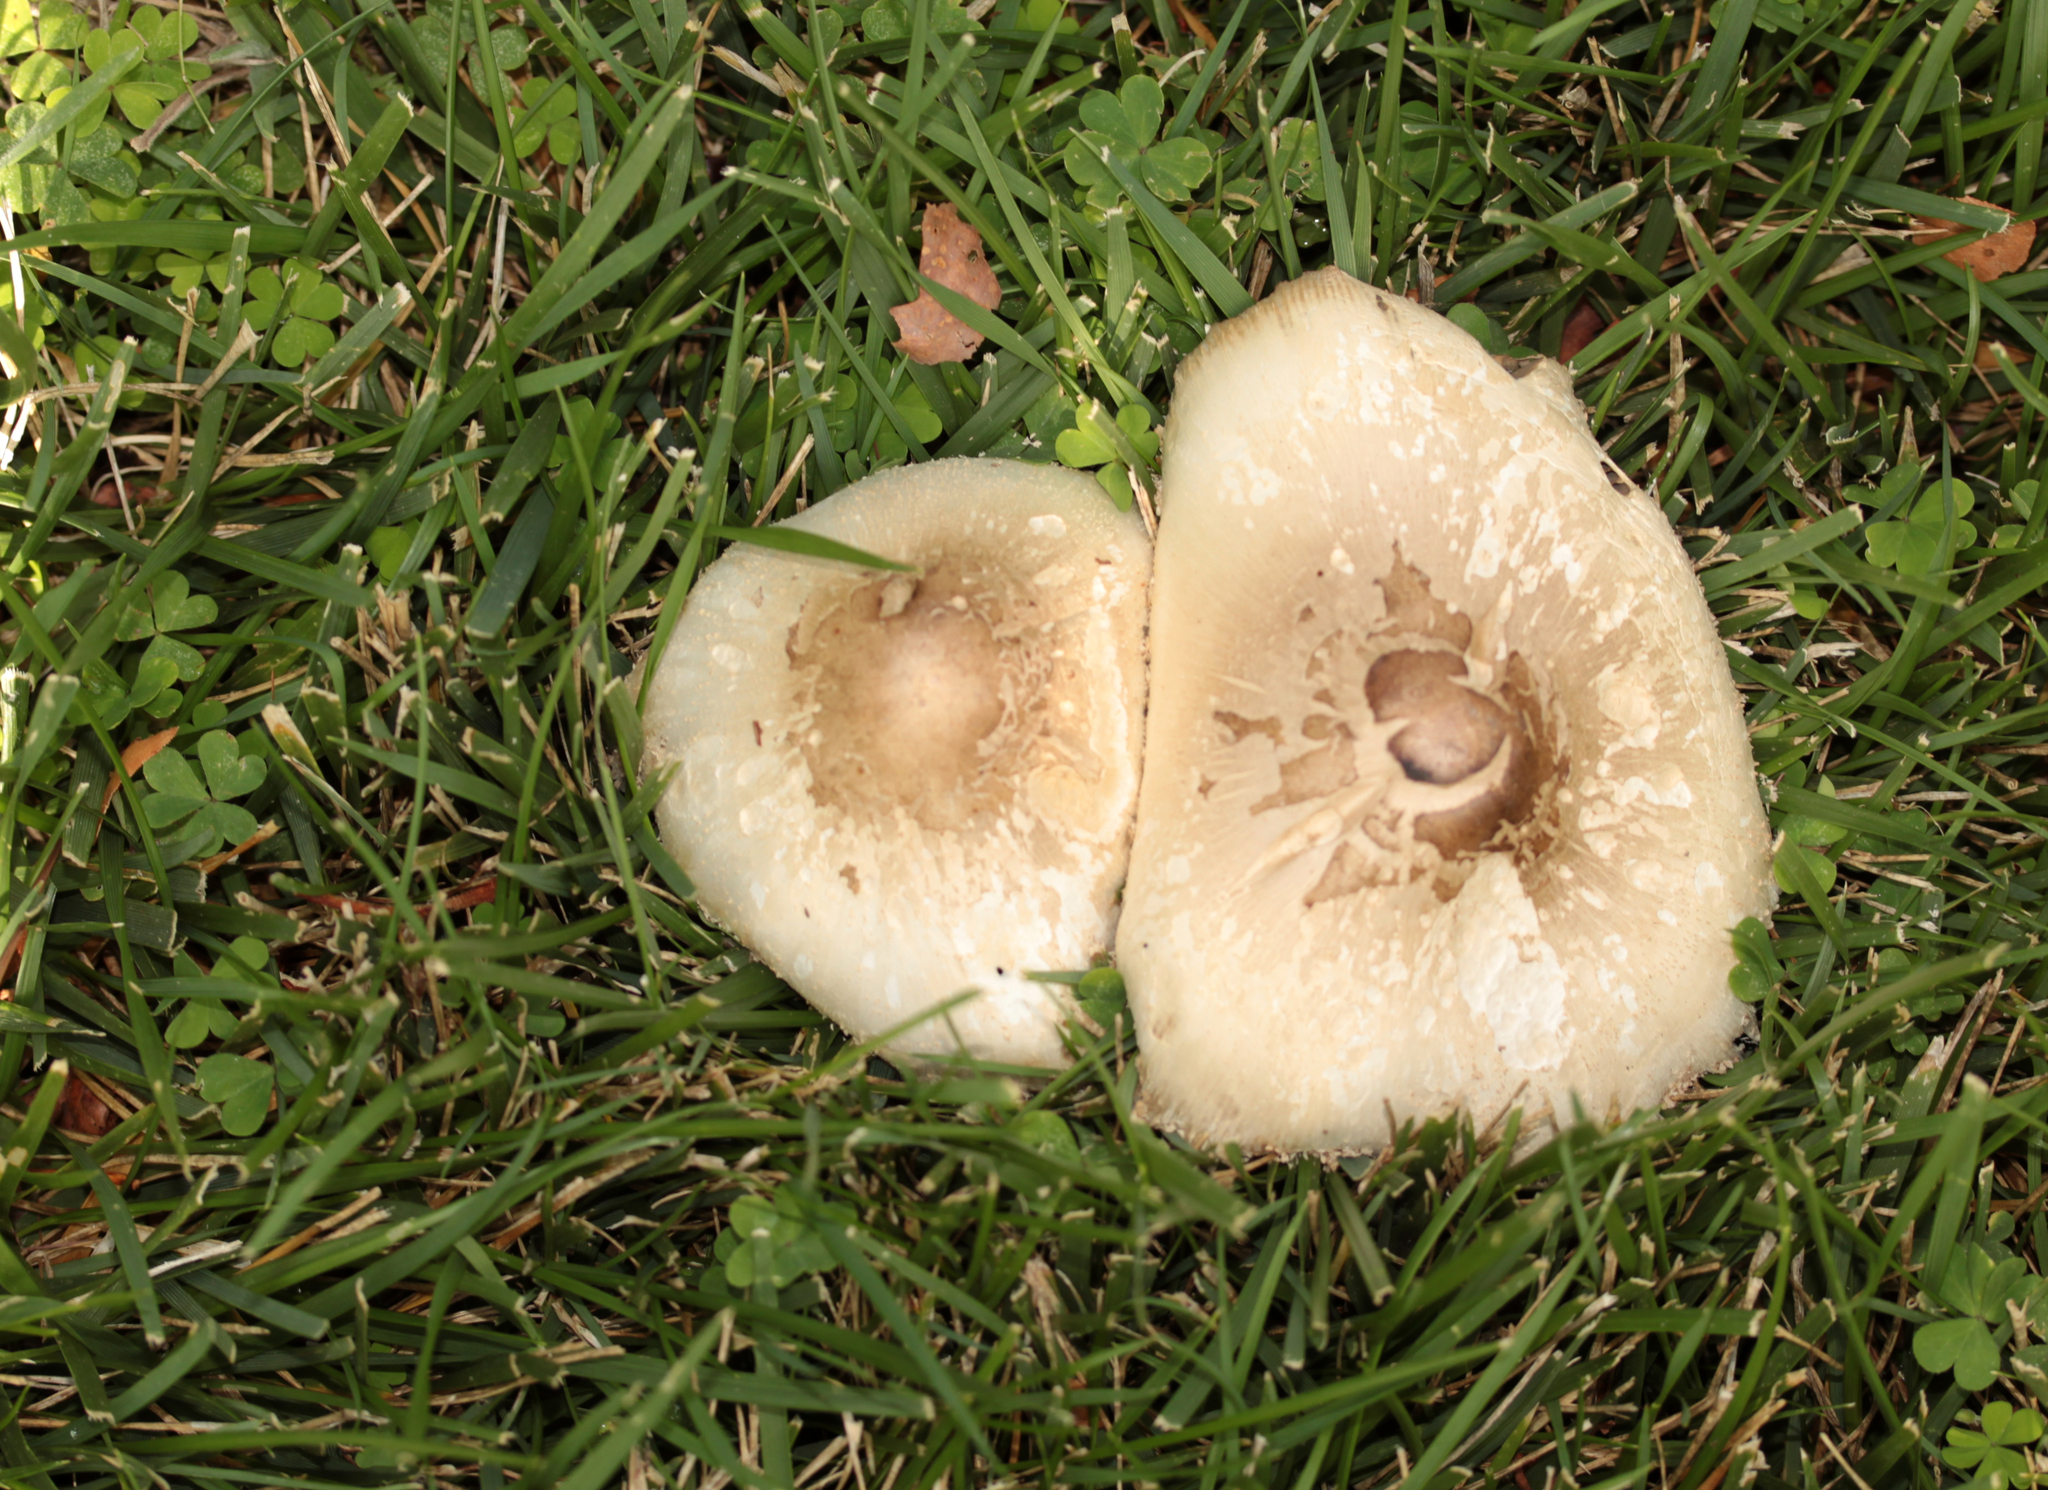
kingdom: Fungi
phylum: Basidiomycota
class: Agaricomycetes
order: Agaricales
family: Agaricaceae
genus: Chlorophyllum
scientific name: Chlorophyllum molybdites
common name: False parasol
